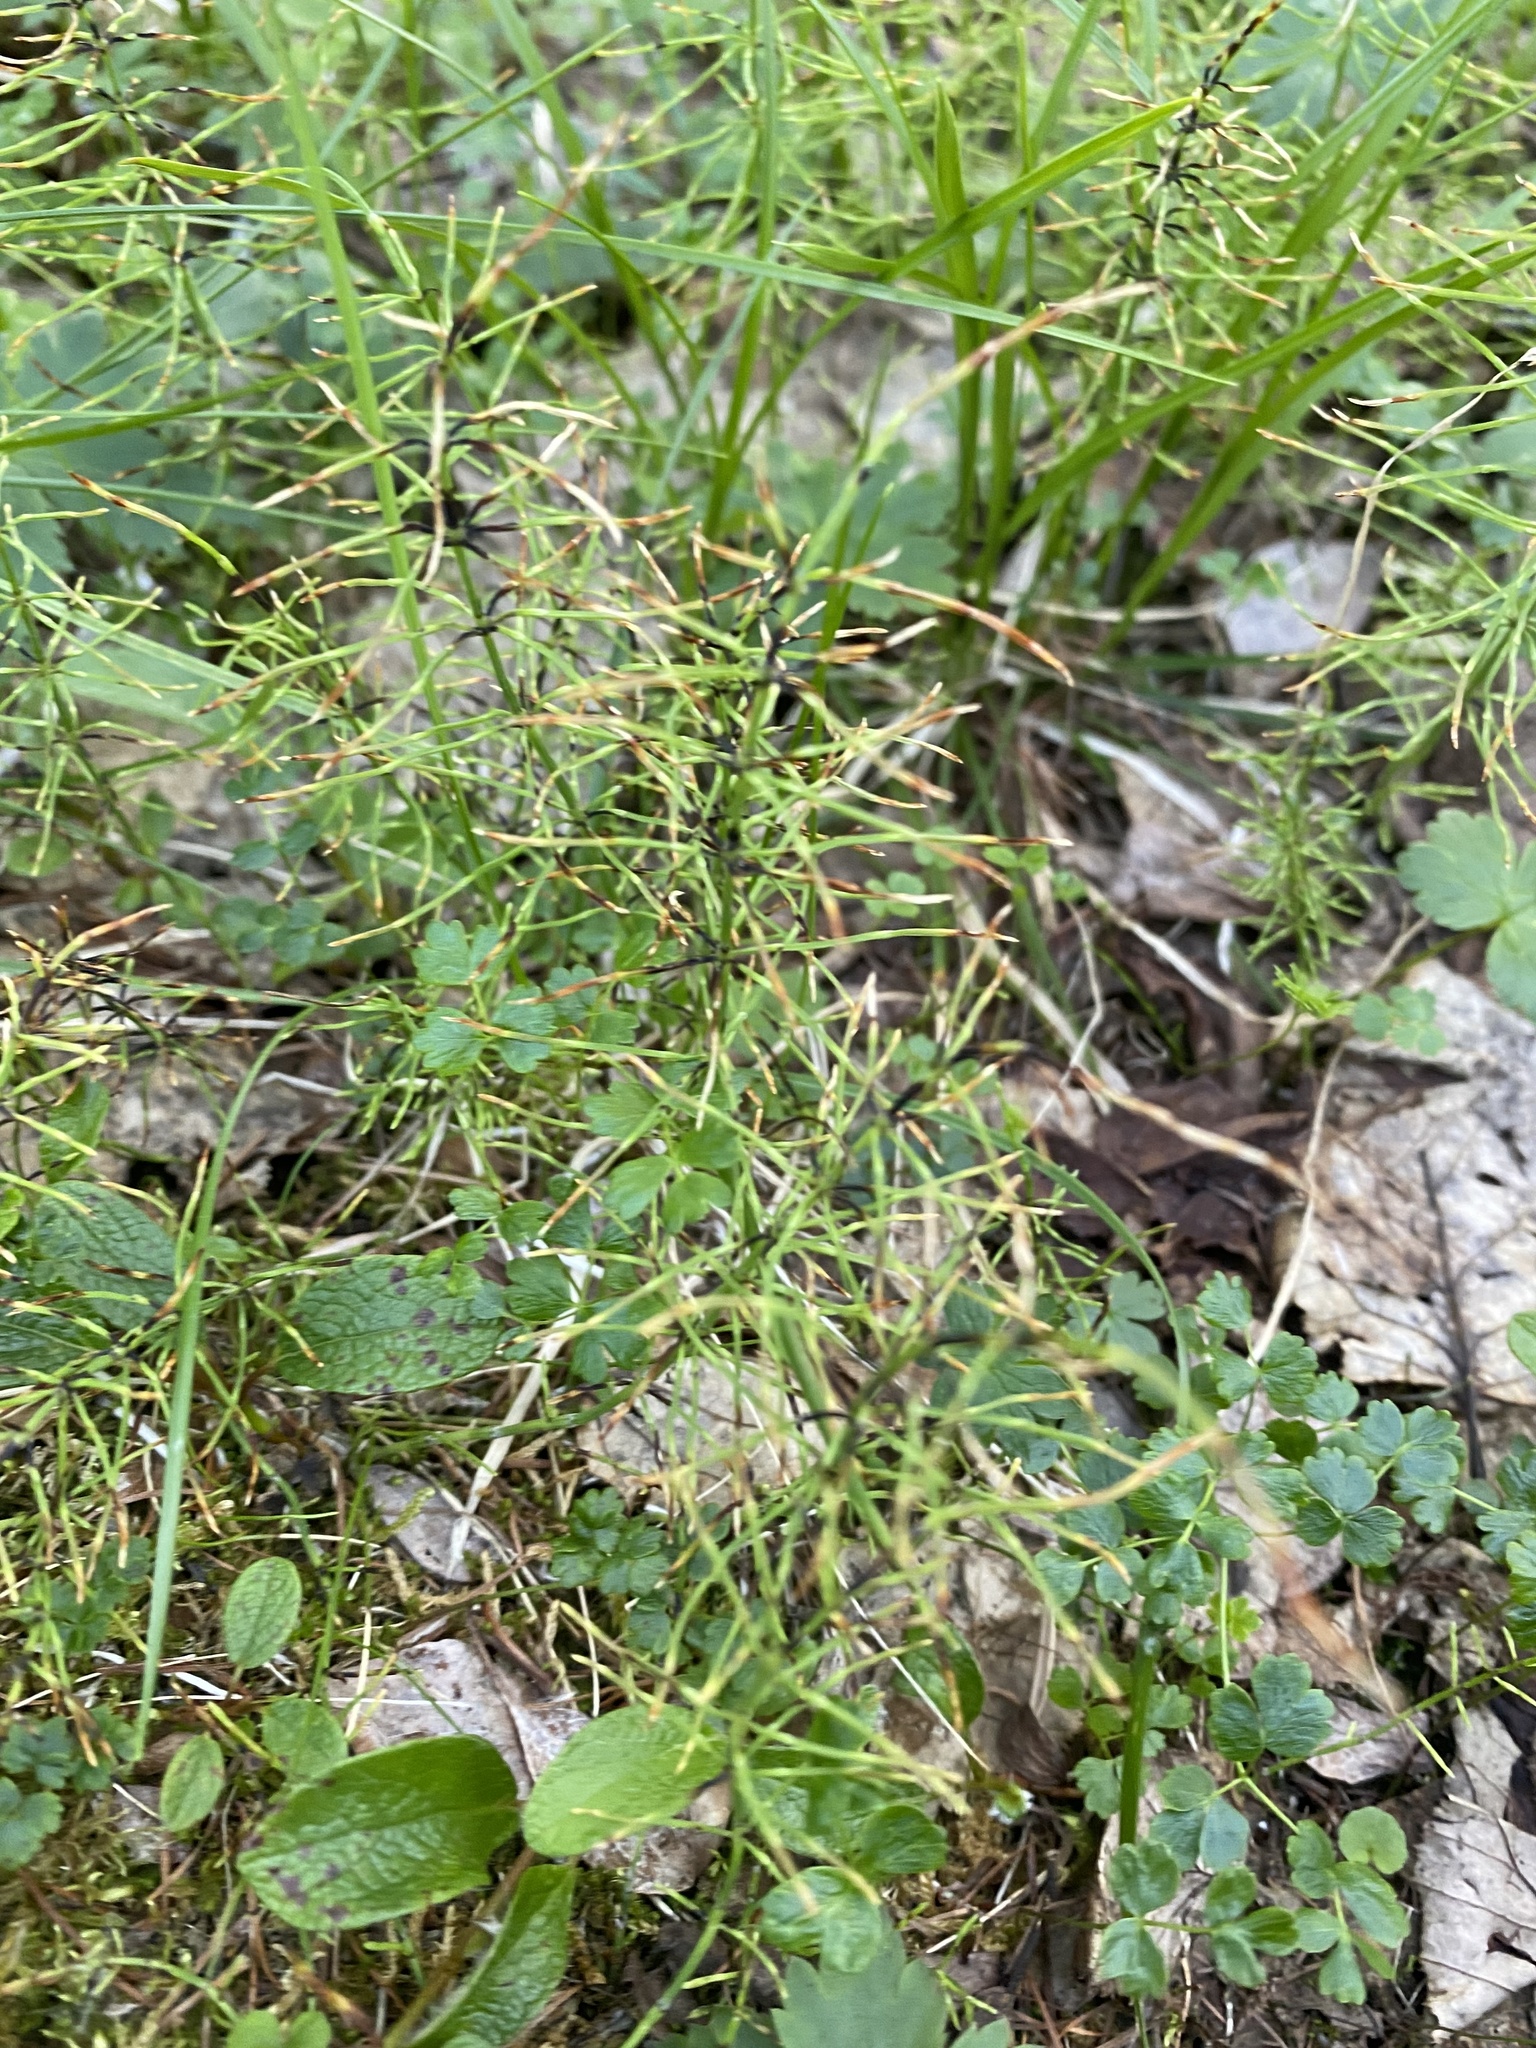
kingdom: Plantae
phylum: Tracheophyta
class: Polypodiopsida
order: Equisetales
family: Equisetaceae
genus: Equisetum
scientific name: Equisetum pratense
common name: Meadow horsetail
